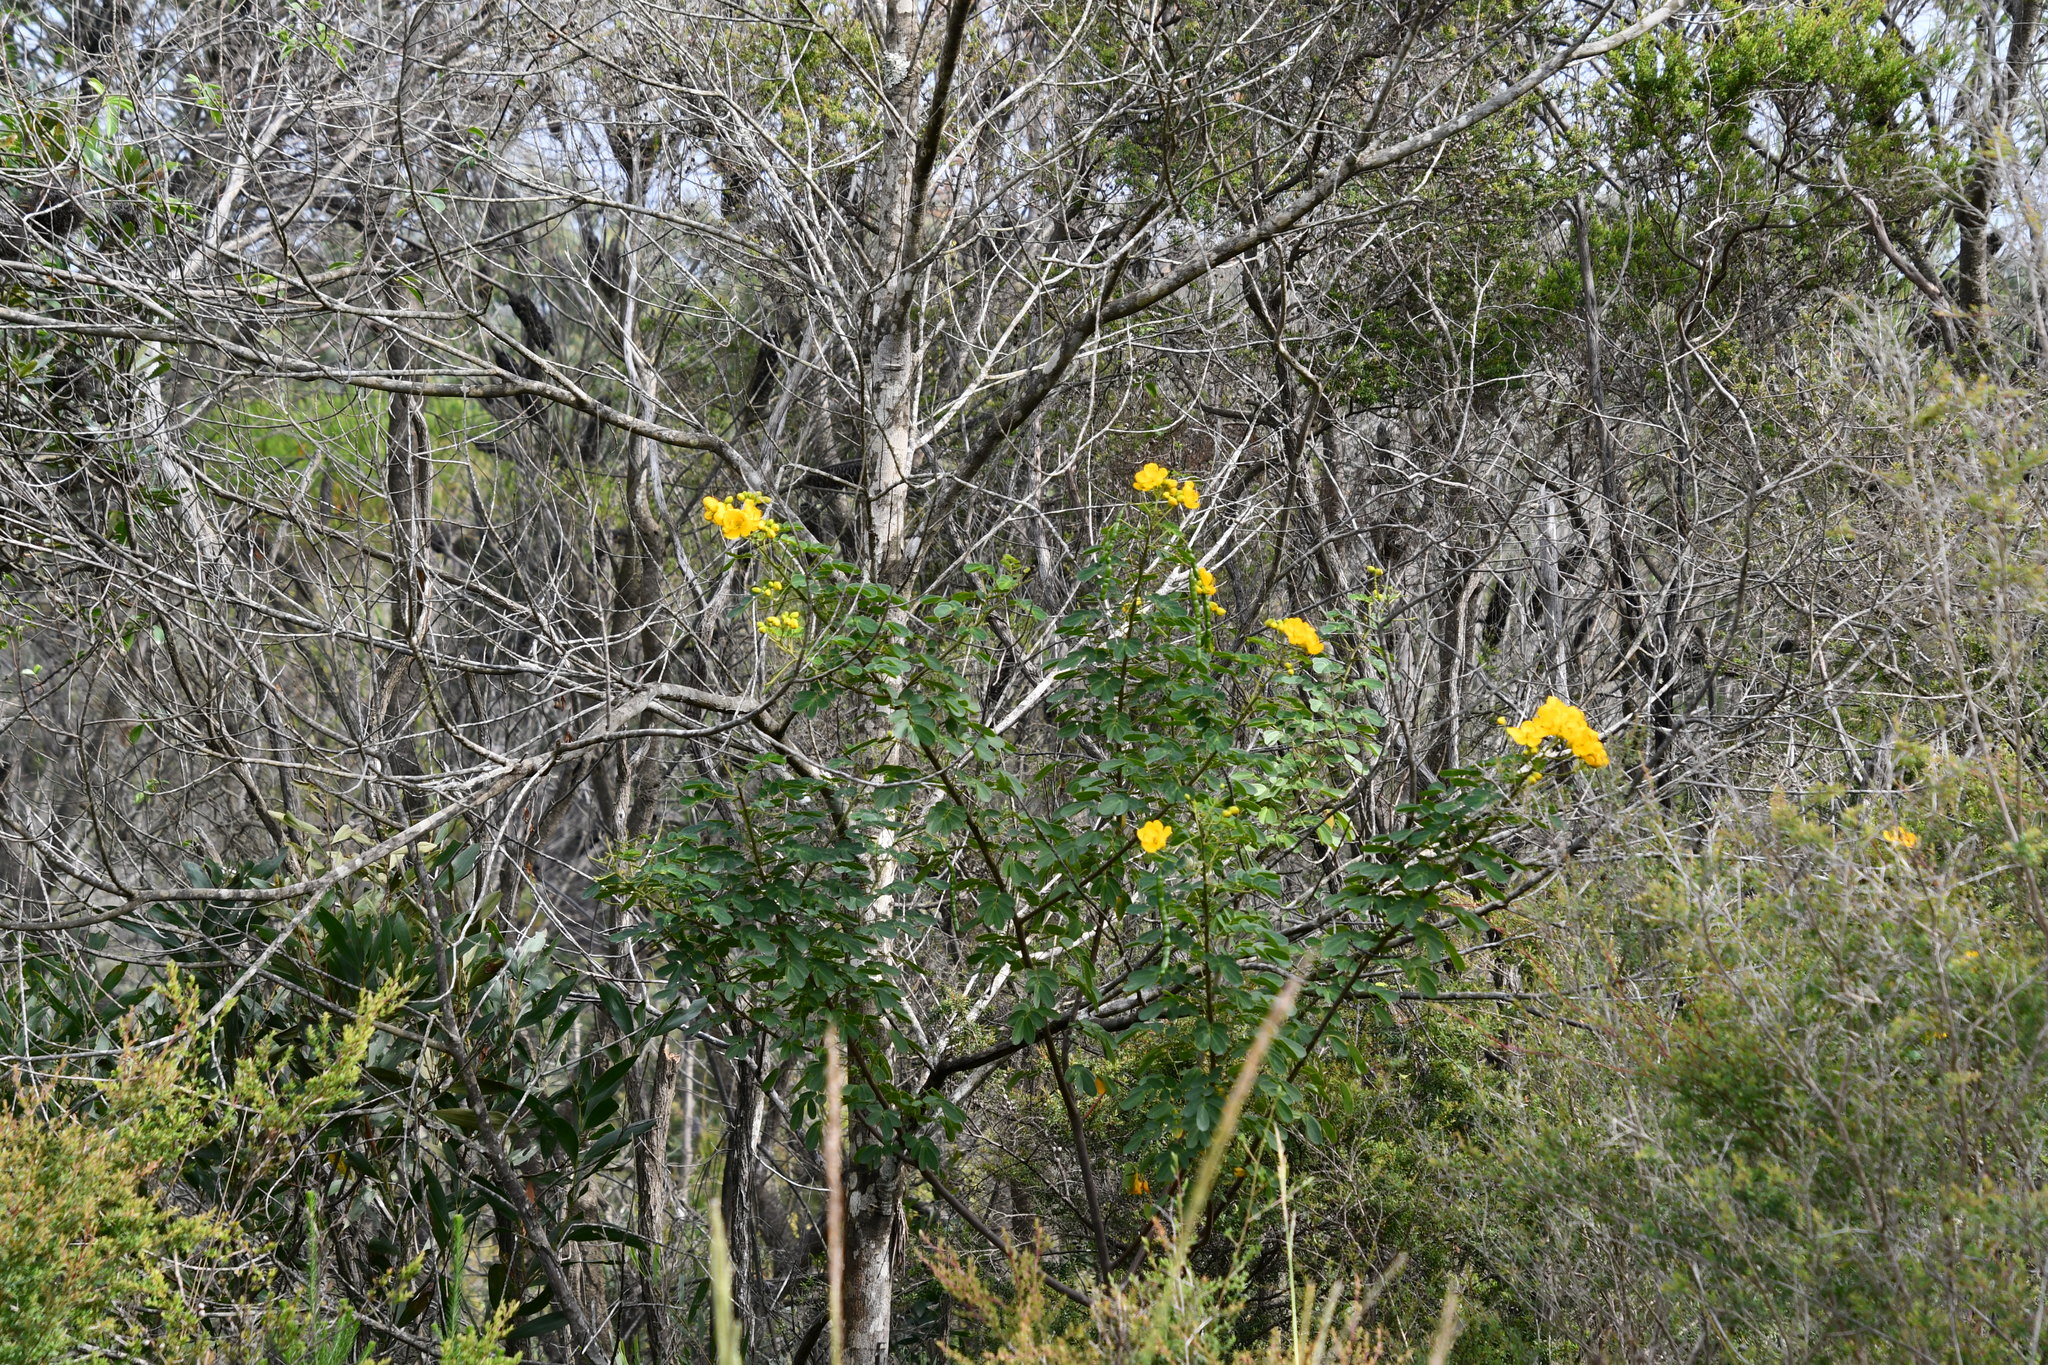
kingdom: Plantae
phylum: Tracheophyta
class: Magnoliopsida
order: Fabales
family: Fabaceae
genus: Senna
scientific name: Senna pendula
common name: Easter cassia
